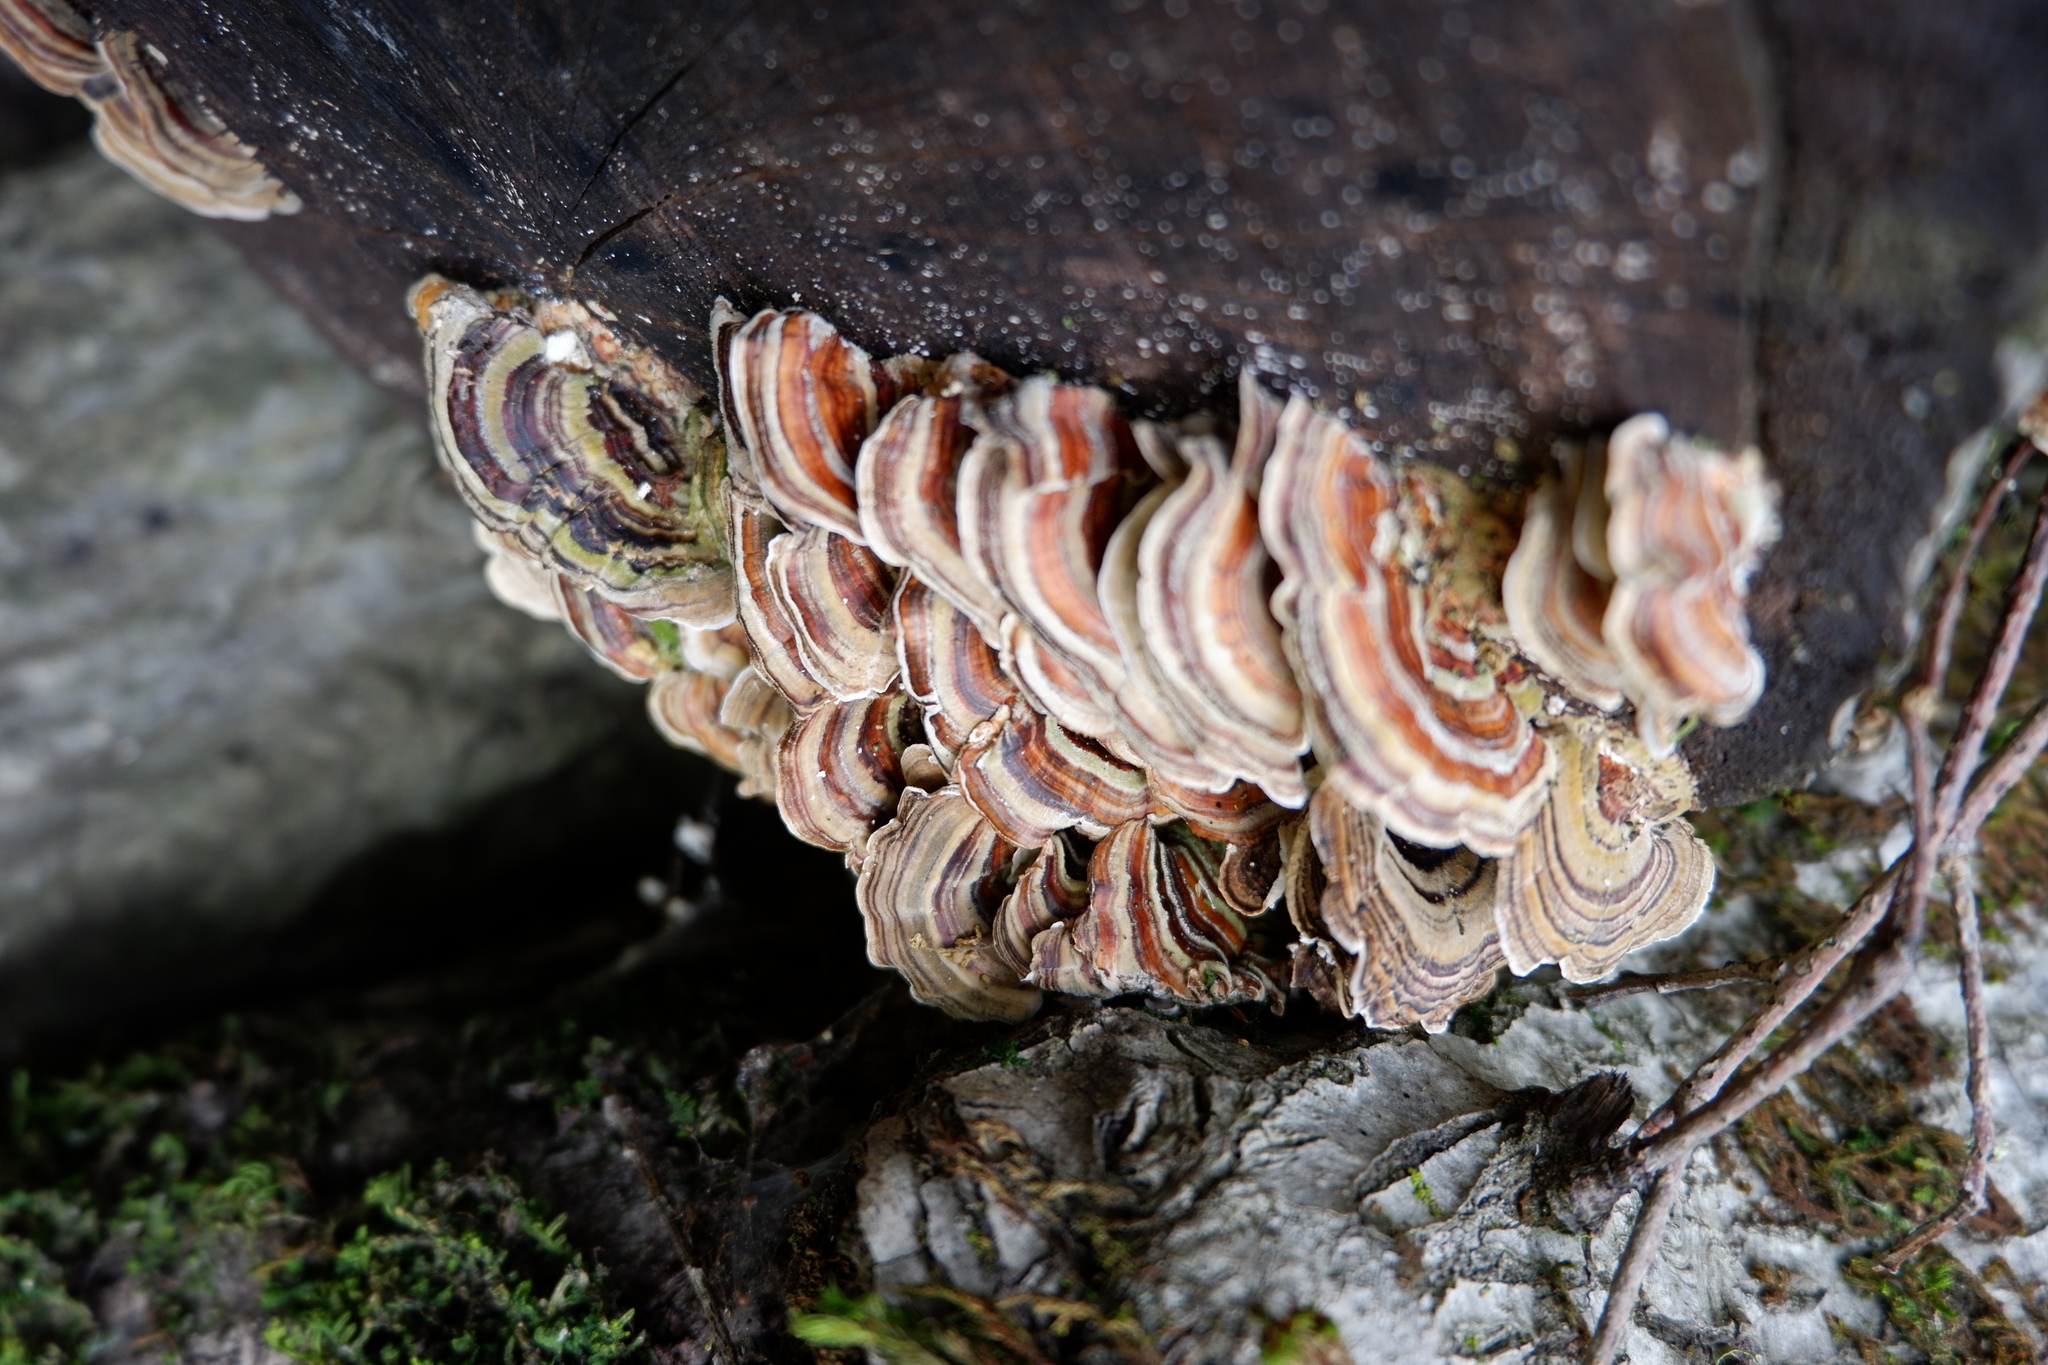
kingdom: Fungi
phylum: Basidiomycota
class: Agaricomycetes
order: Polyporales
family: Polyporaceae
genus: Trametes
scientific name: Trametes versicolor
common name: Turkeytail
